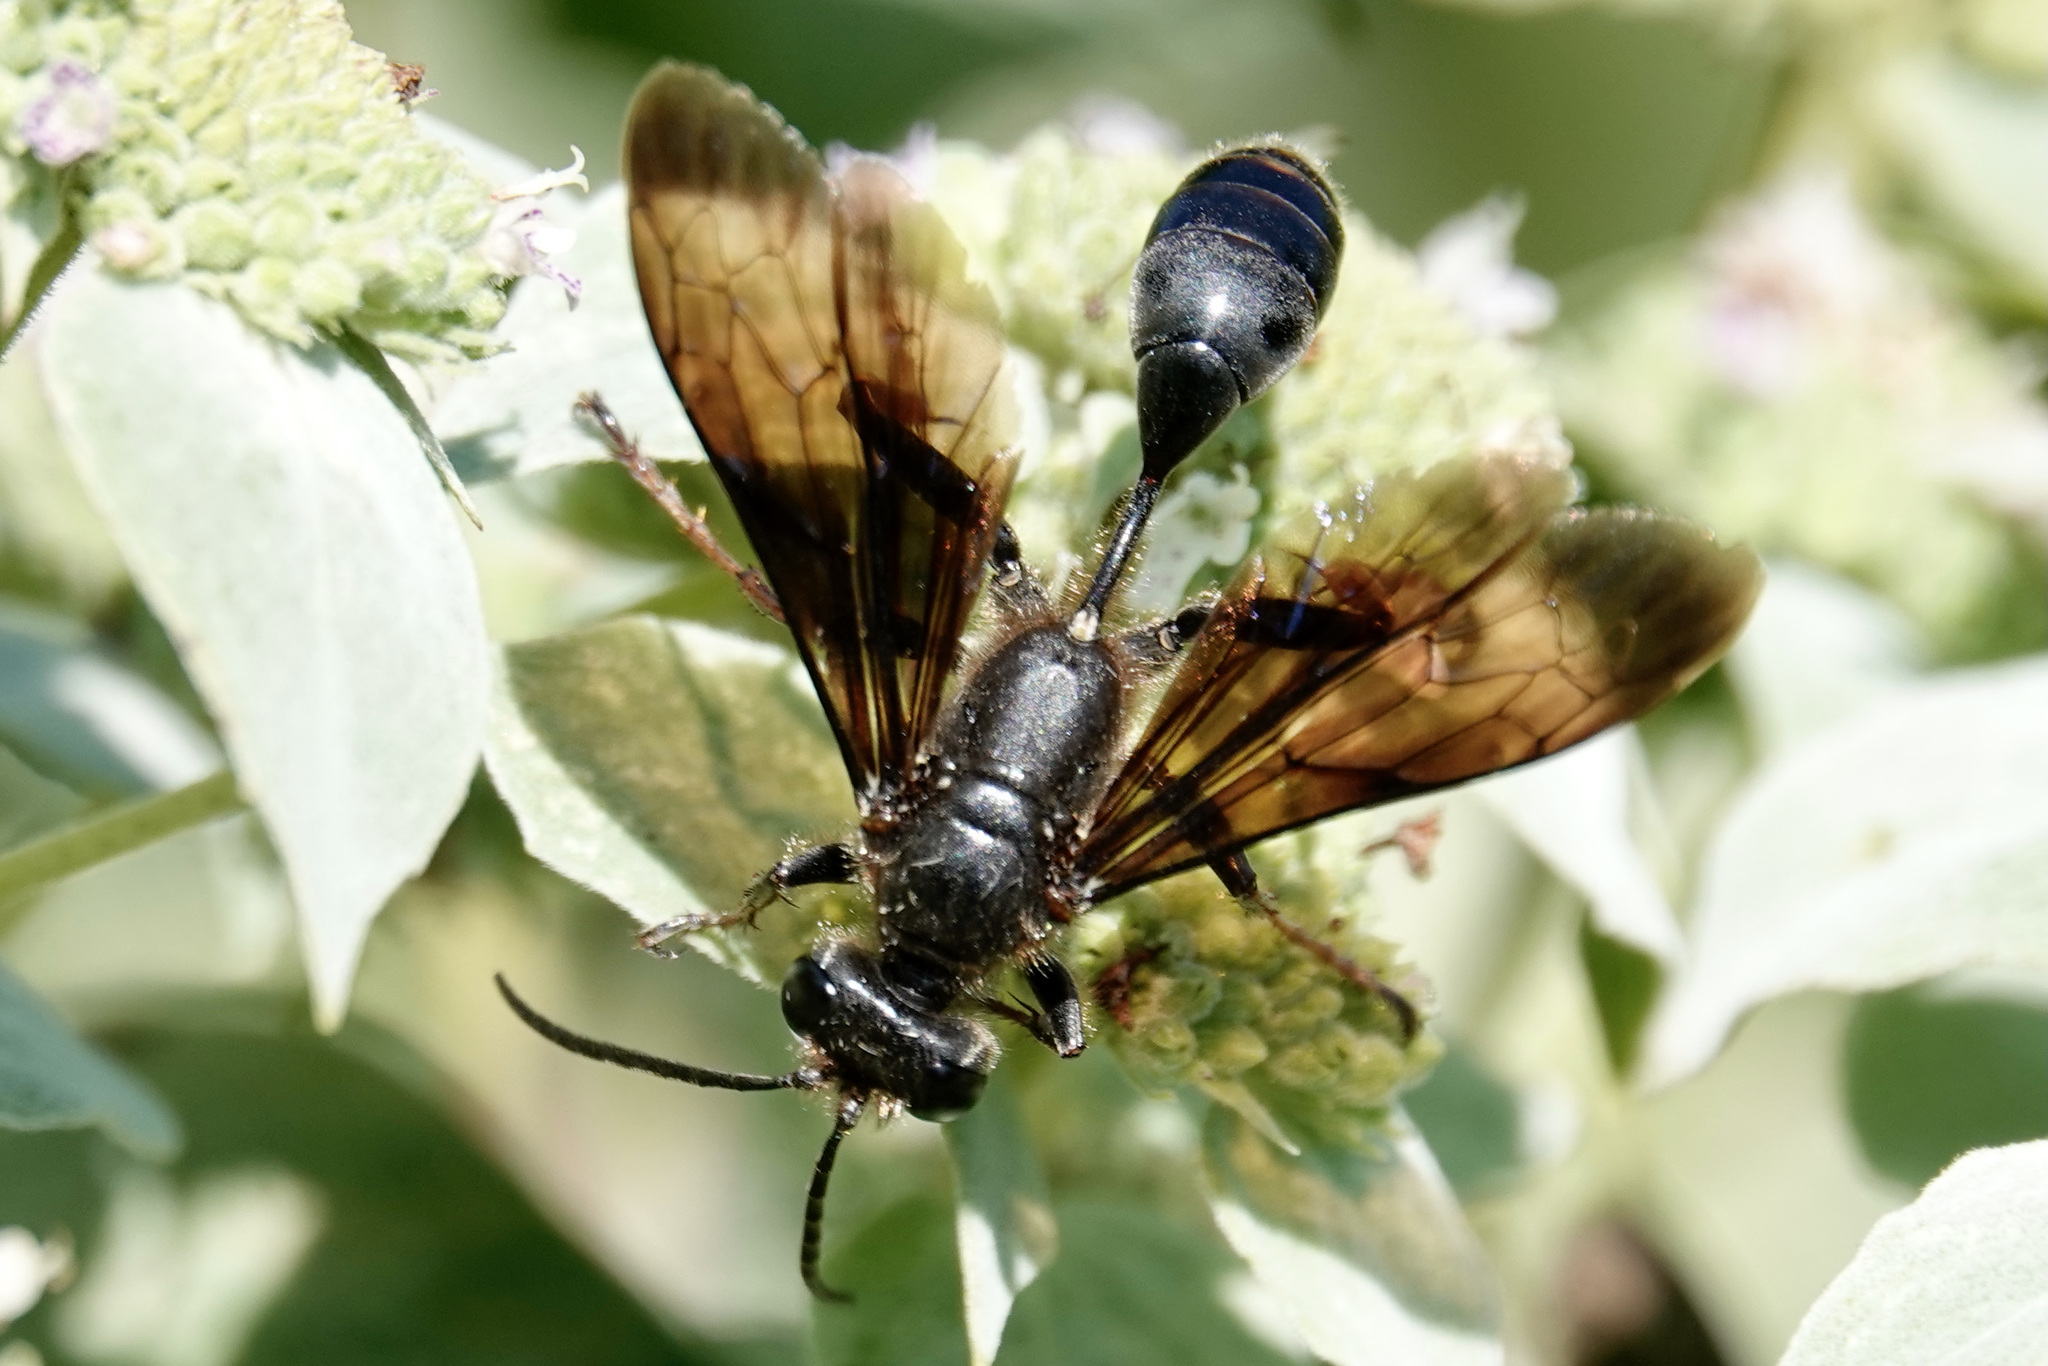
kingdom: Animalia
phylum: Arthropoda
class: Insecta
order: Hymenoptera
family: Sphecidae
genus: Isodontia
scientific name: Isodontia auripes
